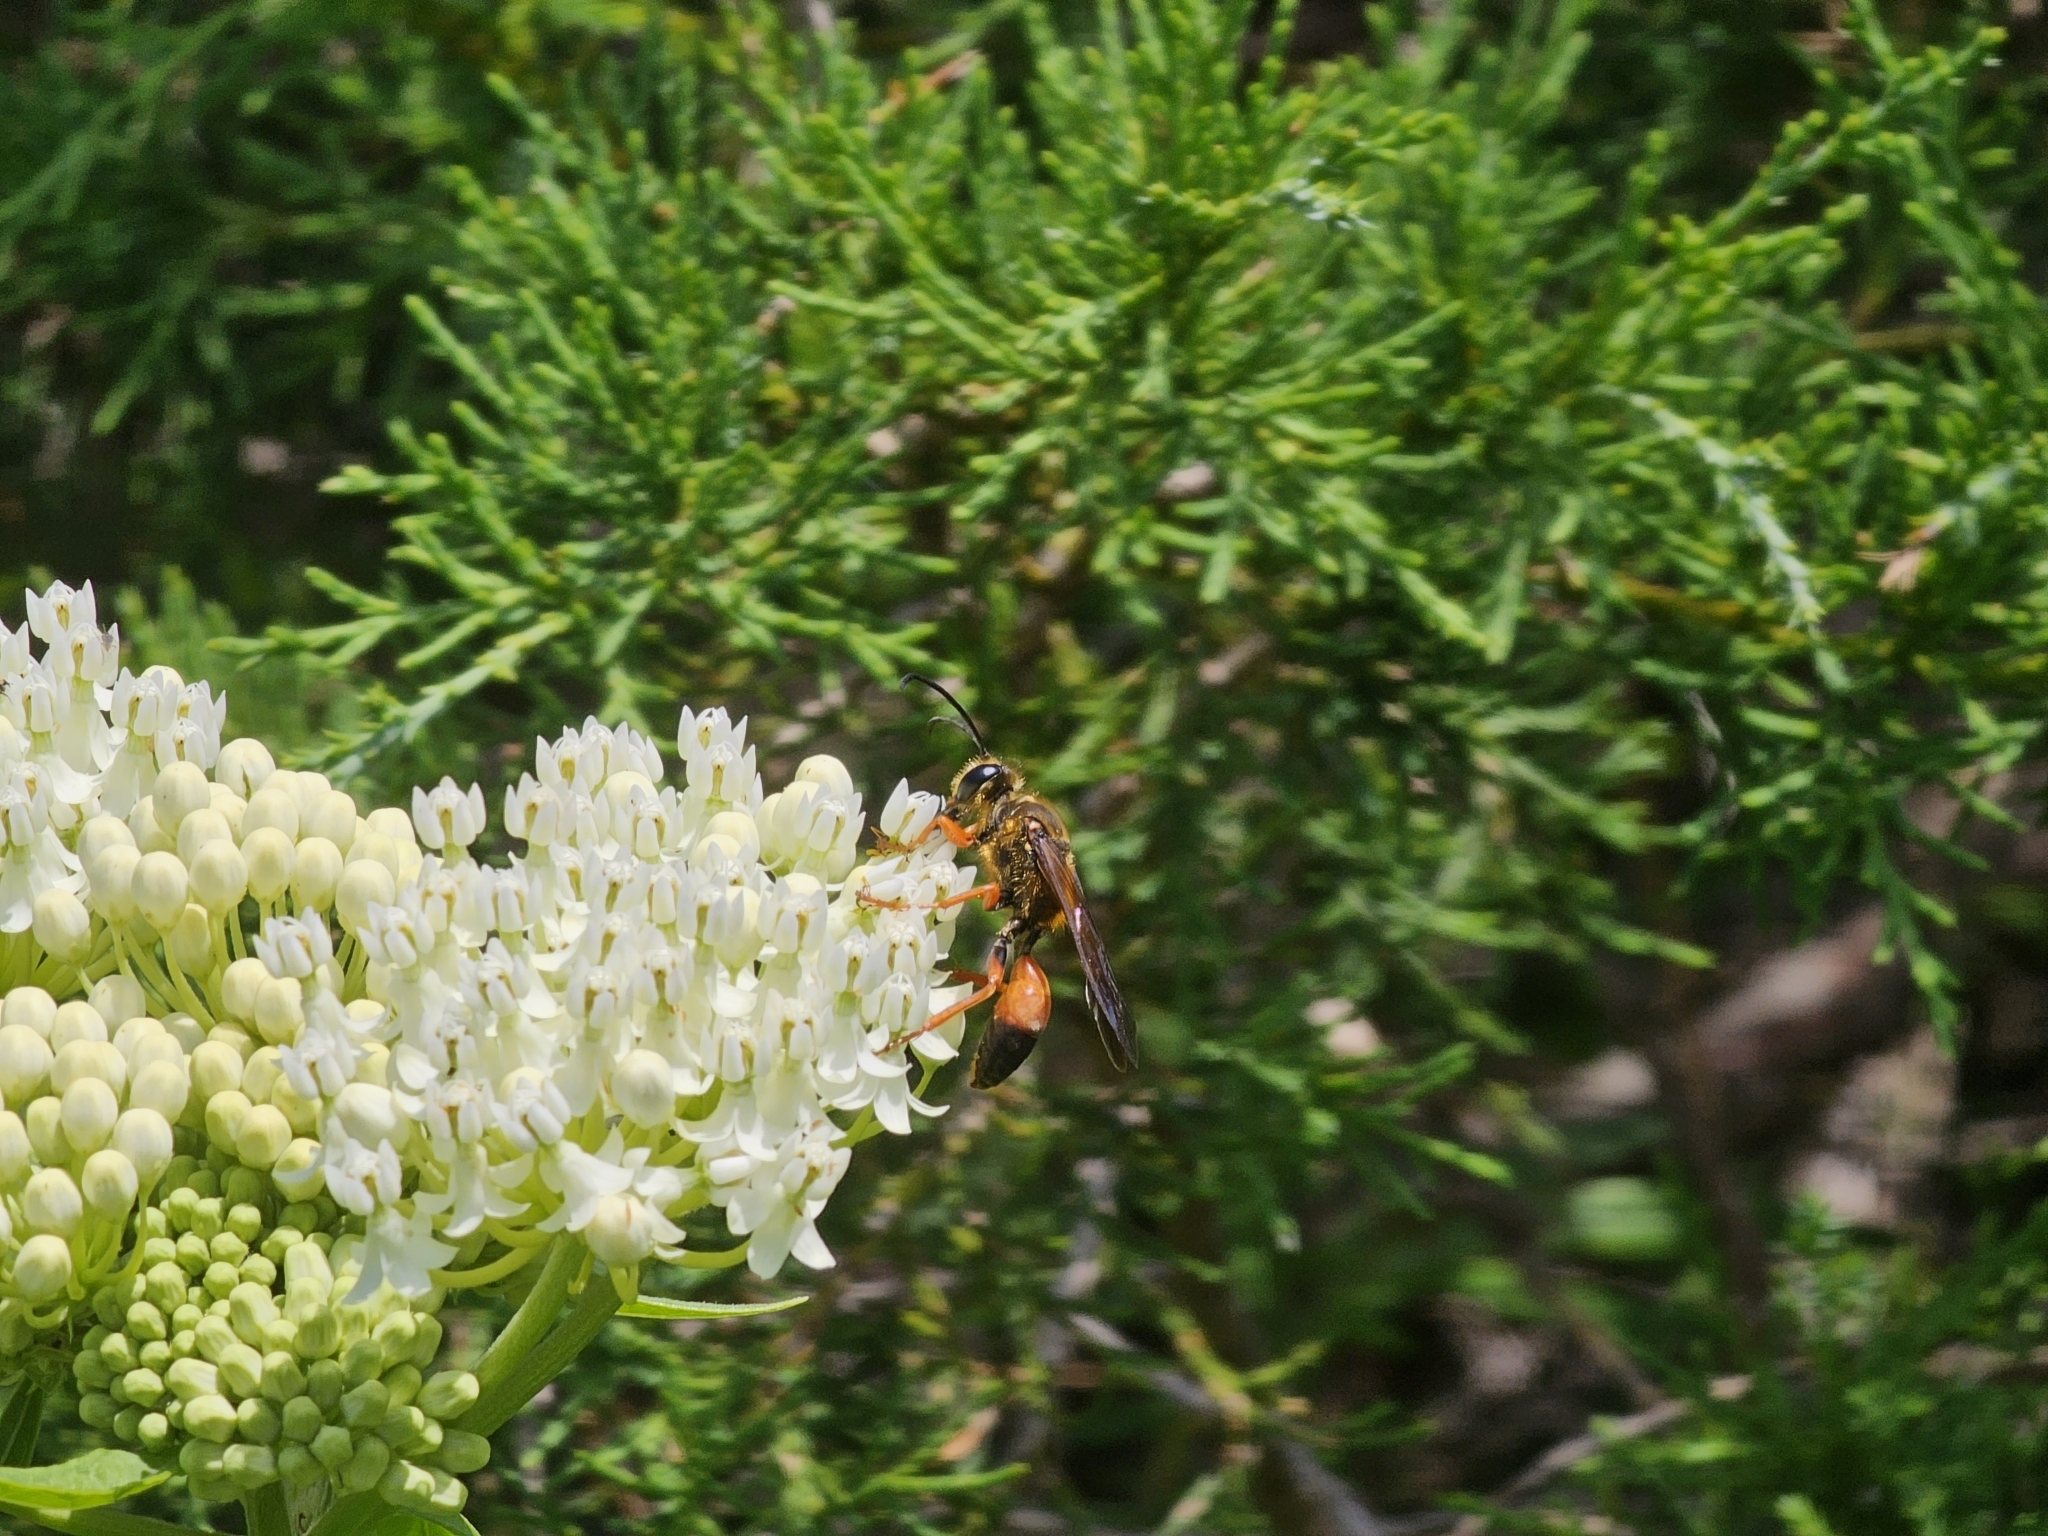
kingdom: Animalia
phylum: Arthropoda
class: Insecta
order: Hymenoptera
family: Sphecidae
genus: Sphex
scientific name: Sphex ichneumoneus
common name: Great golden digger wasp
